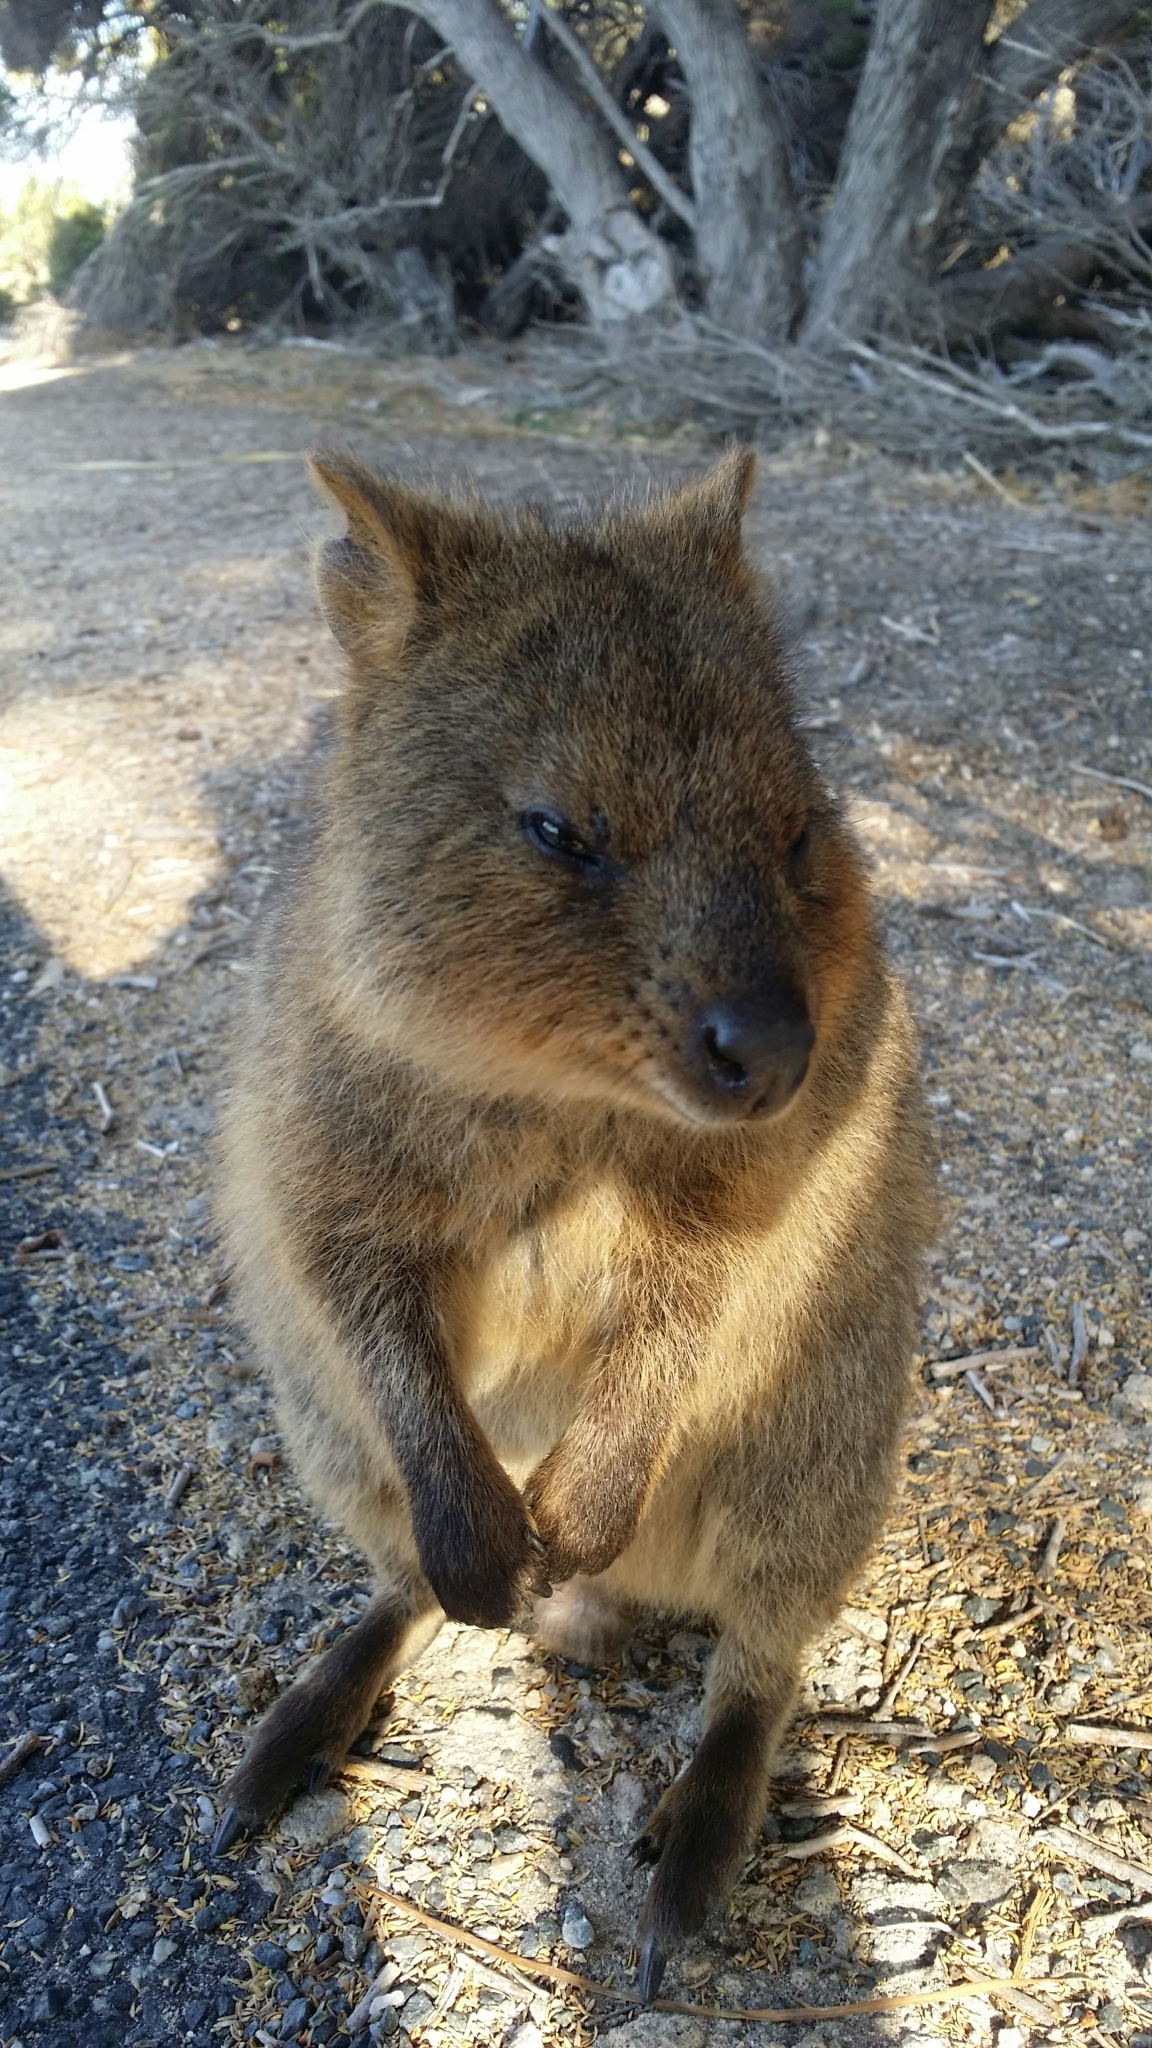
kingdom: Animalia
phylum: Chordata
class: Mammalia
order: Diprotodontia
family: Macropodidae
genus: Setonix
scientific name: Setonix brachyurus
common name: Quokka
